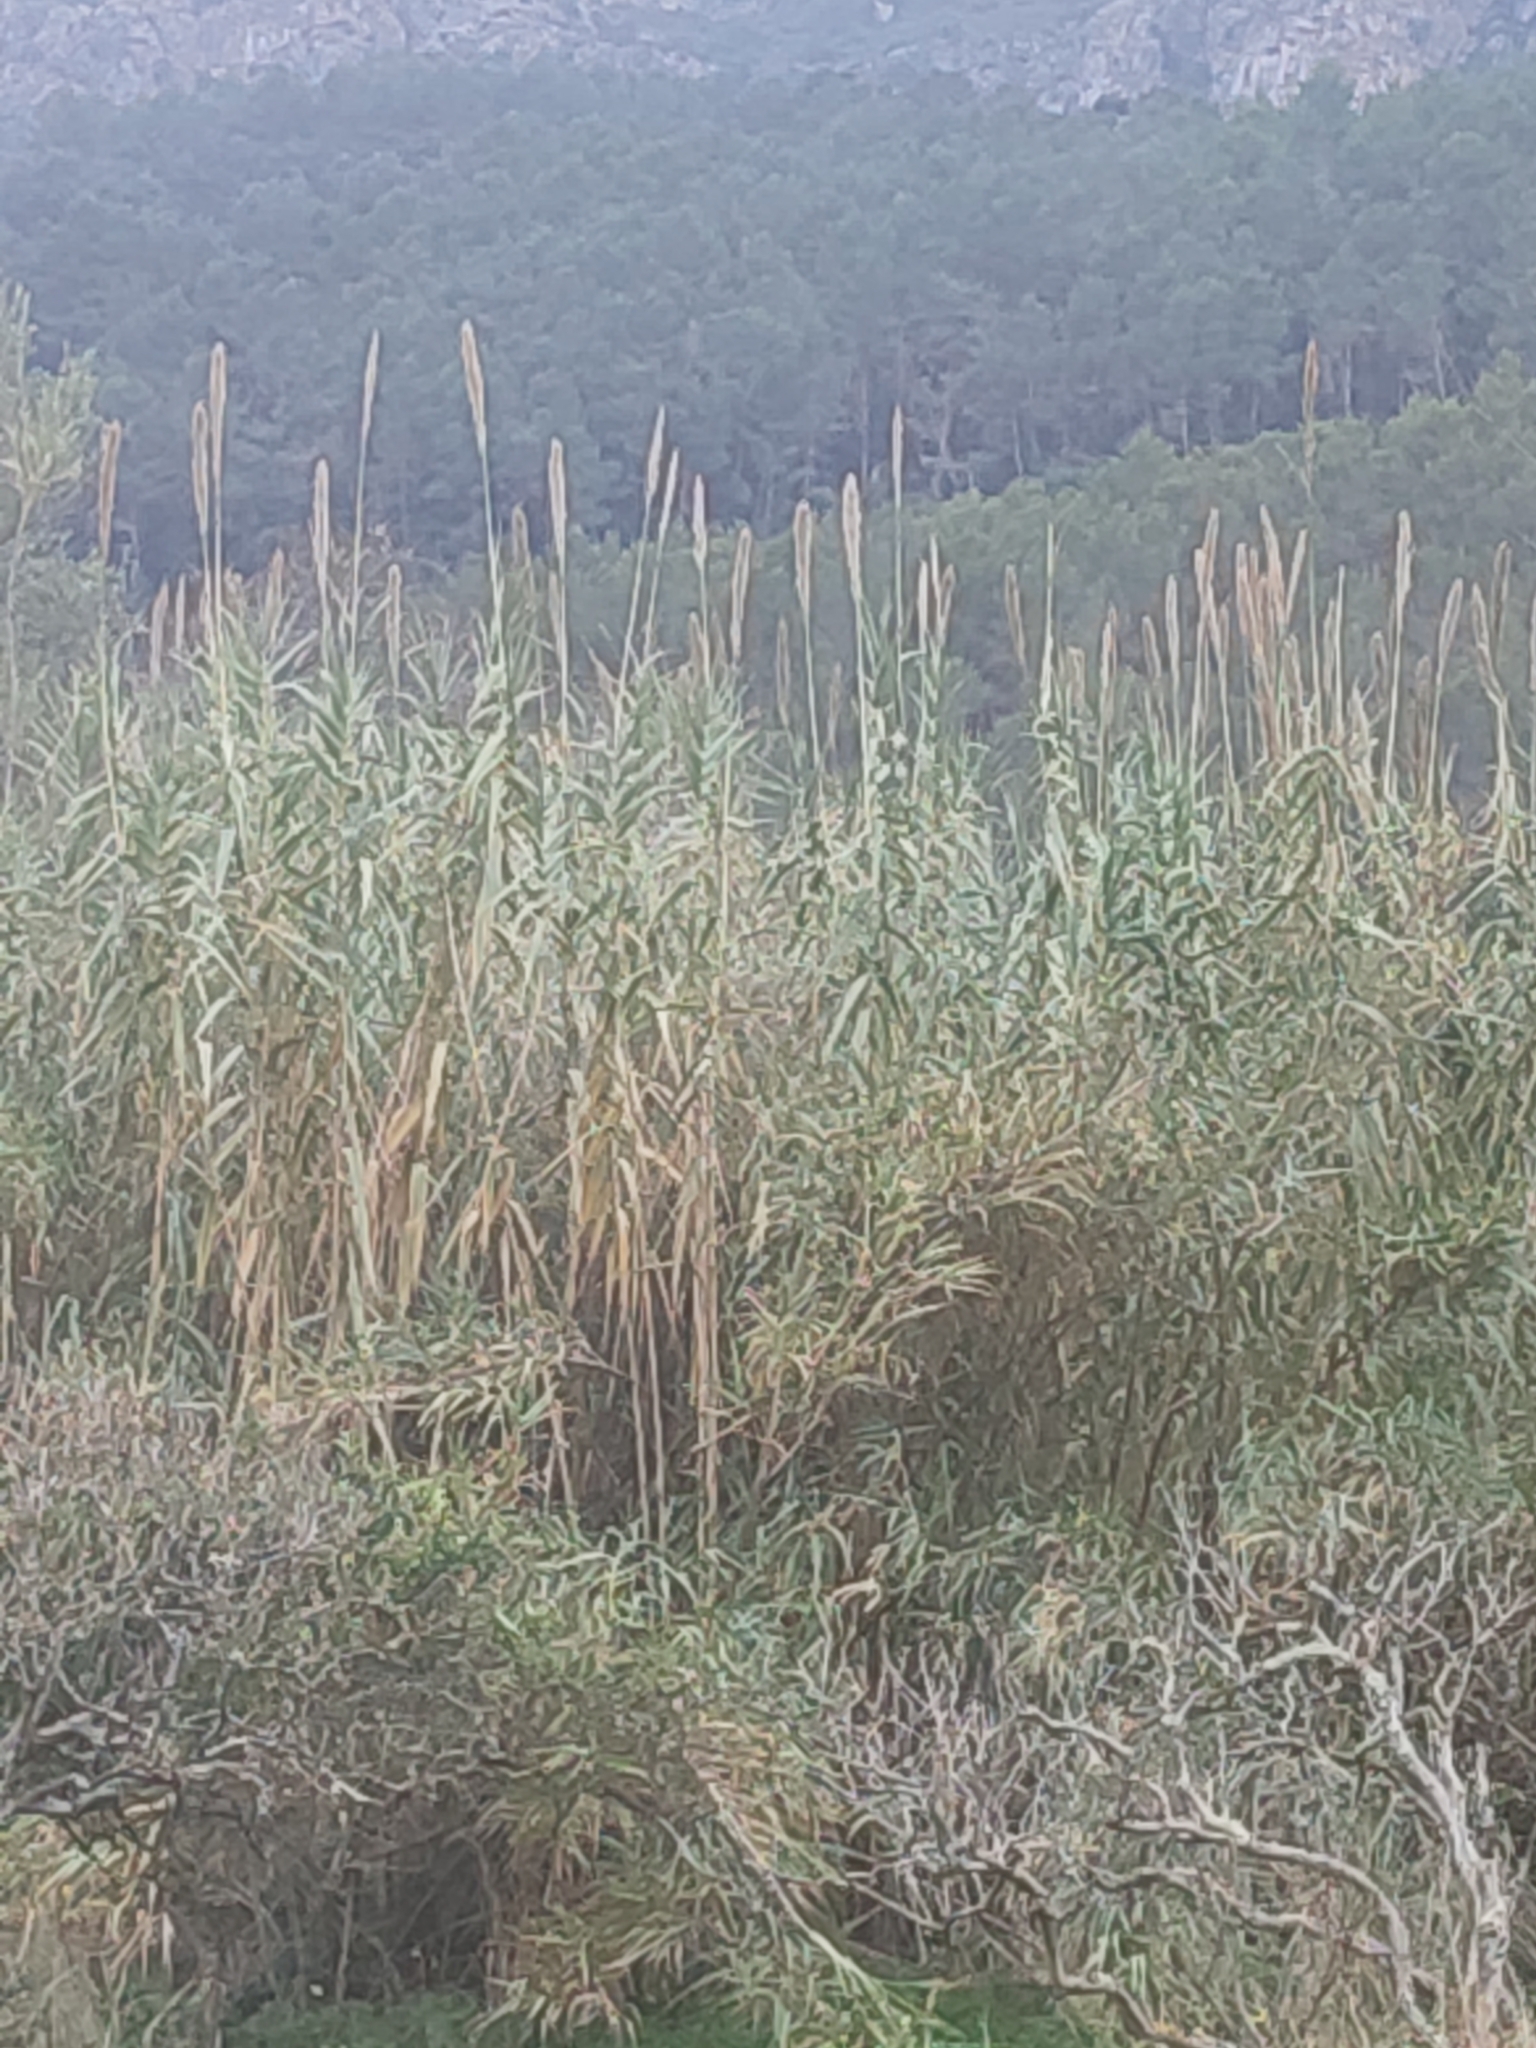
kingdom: Plantae
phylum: Tracheophyta
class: Liliopsida
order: Poales
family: Poaceae
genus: Arundo
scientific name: Arundo donax
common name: Giant reed
